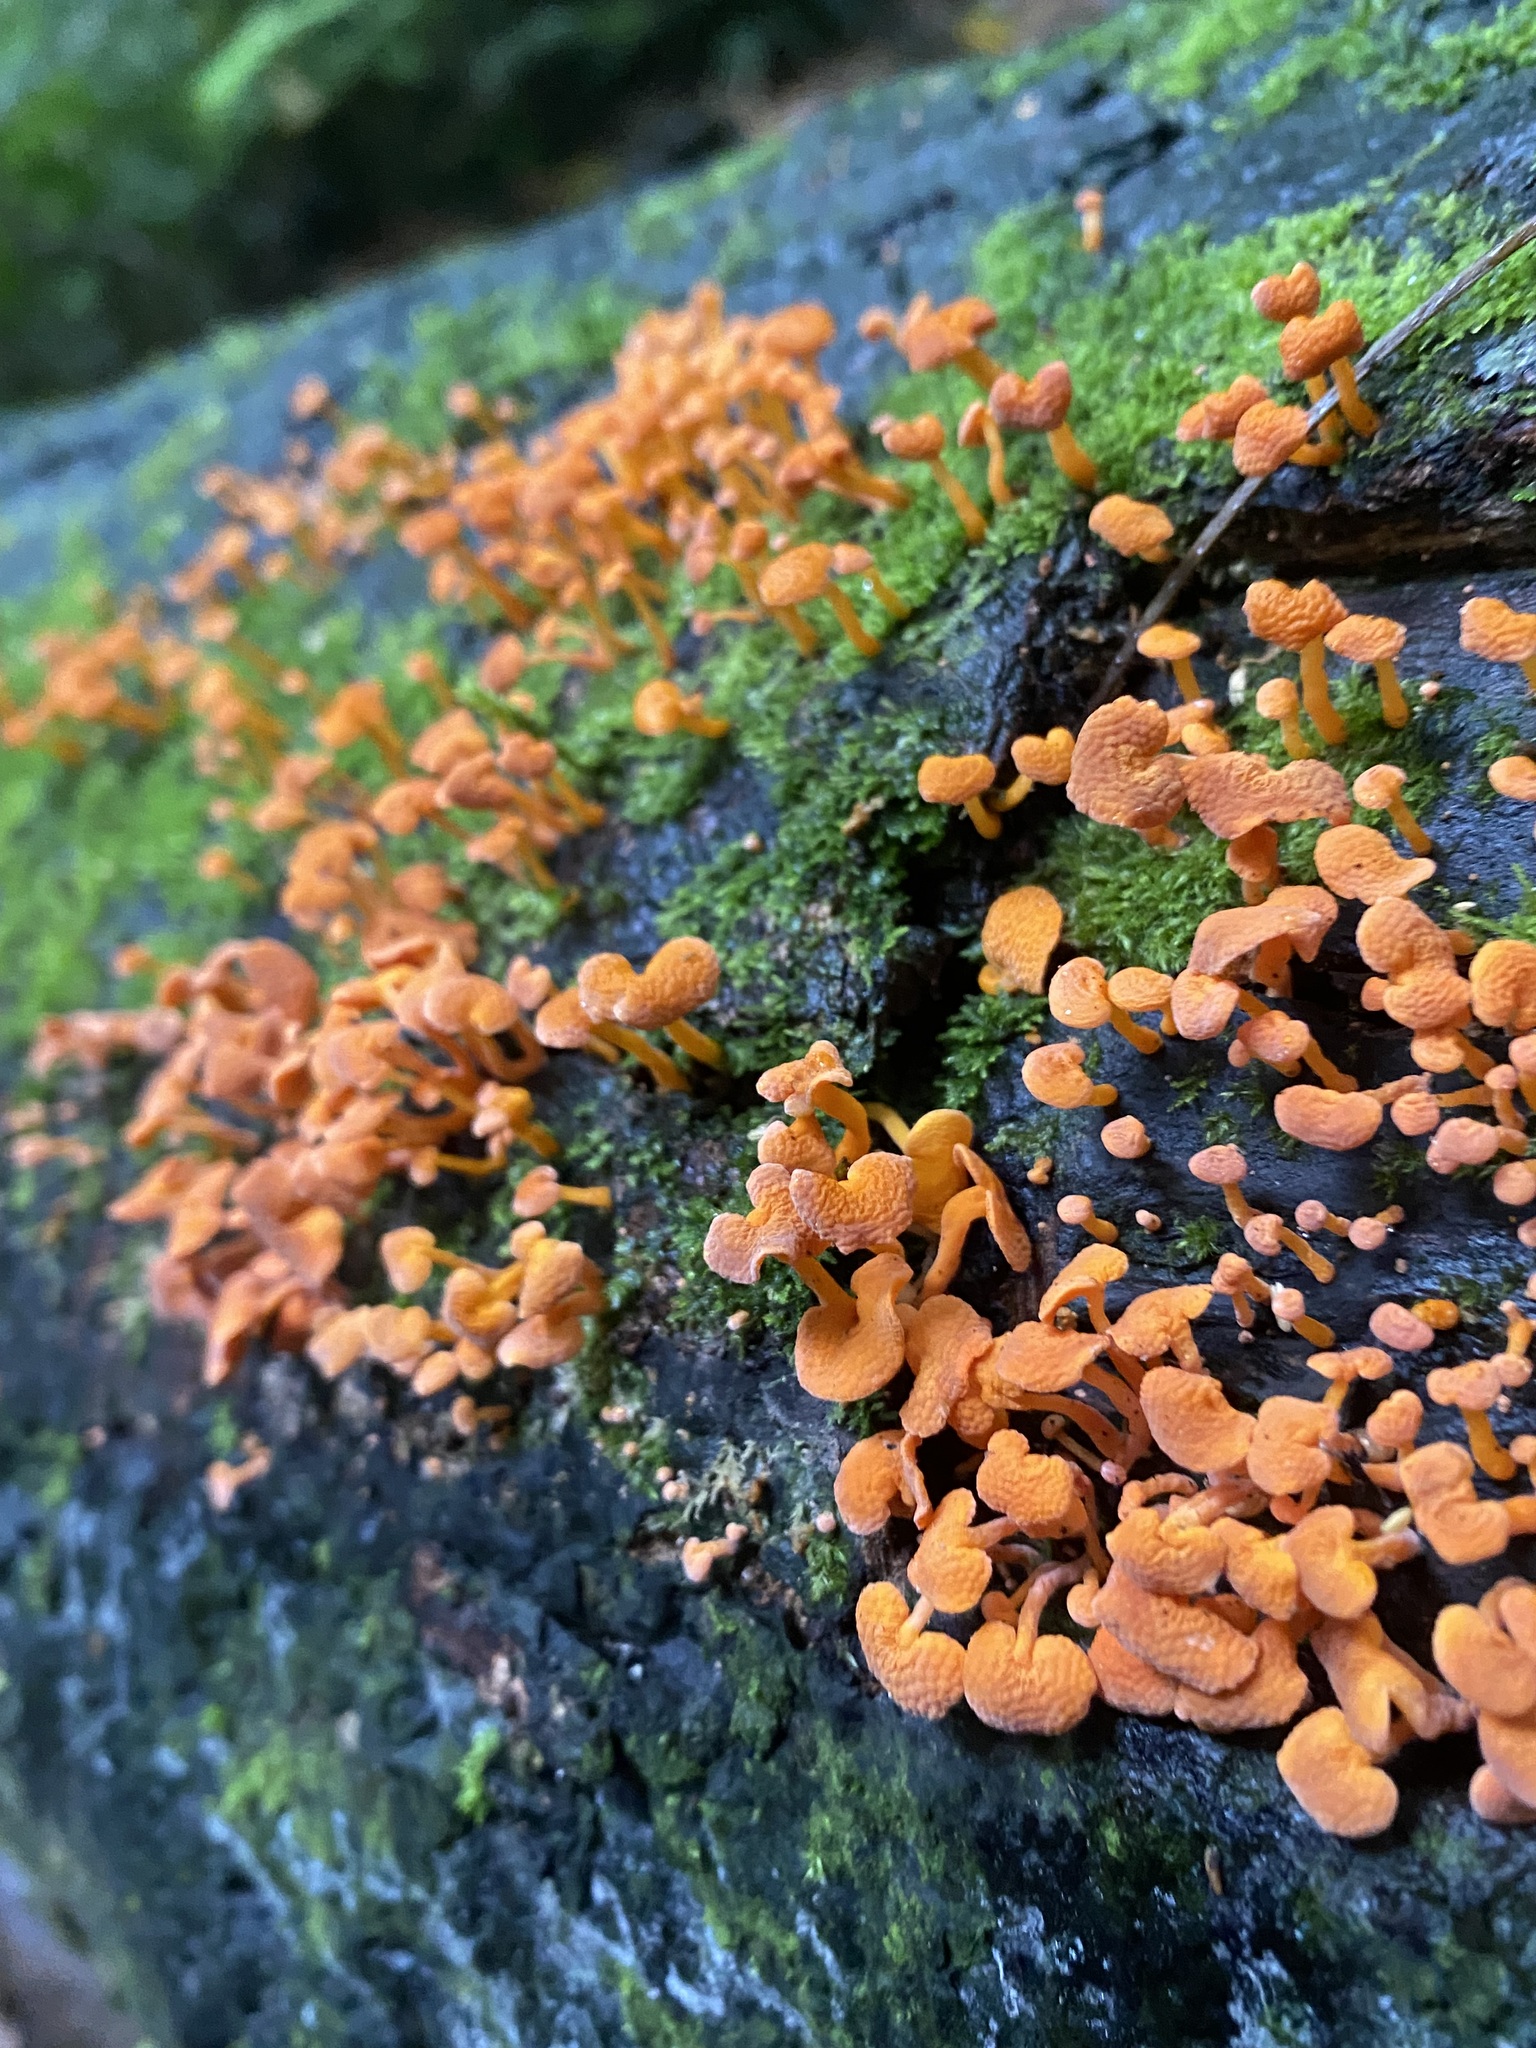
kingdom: Fungi
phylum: Basidiomycota
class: Agaricomycetes
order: Agaricales
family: Mycenaceae
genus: Favolaschia
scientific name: Favolaschia claudopus
